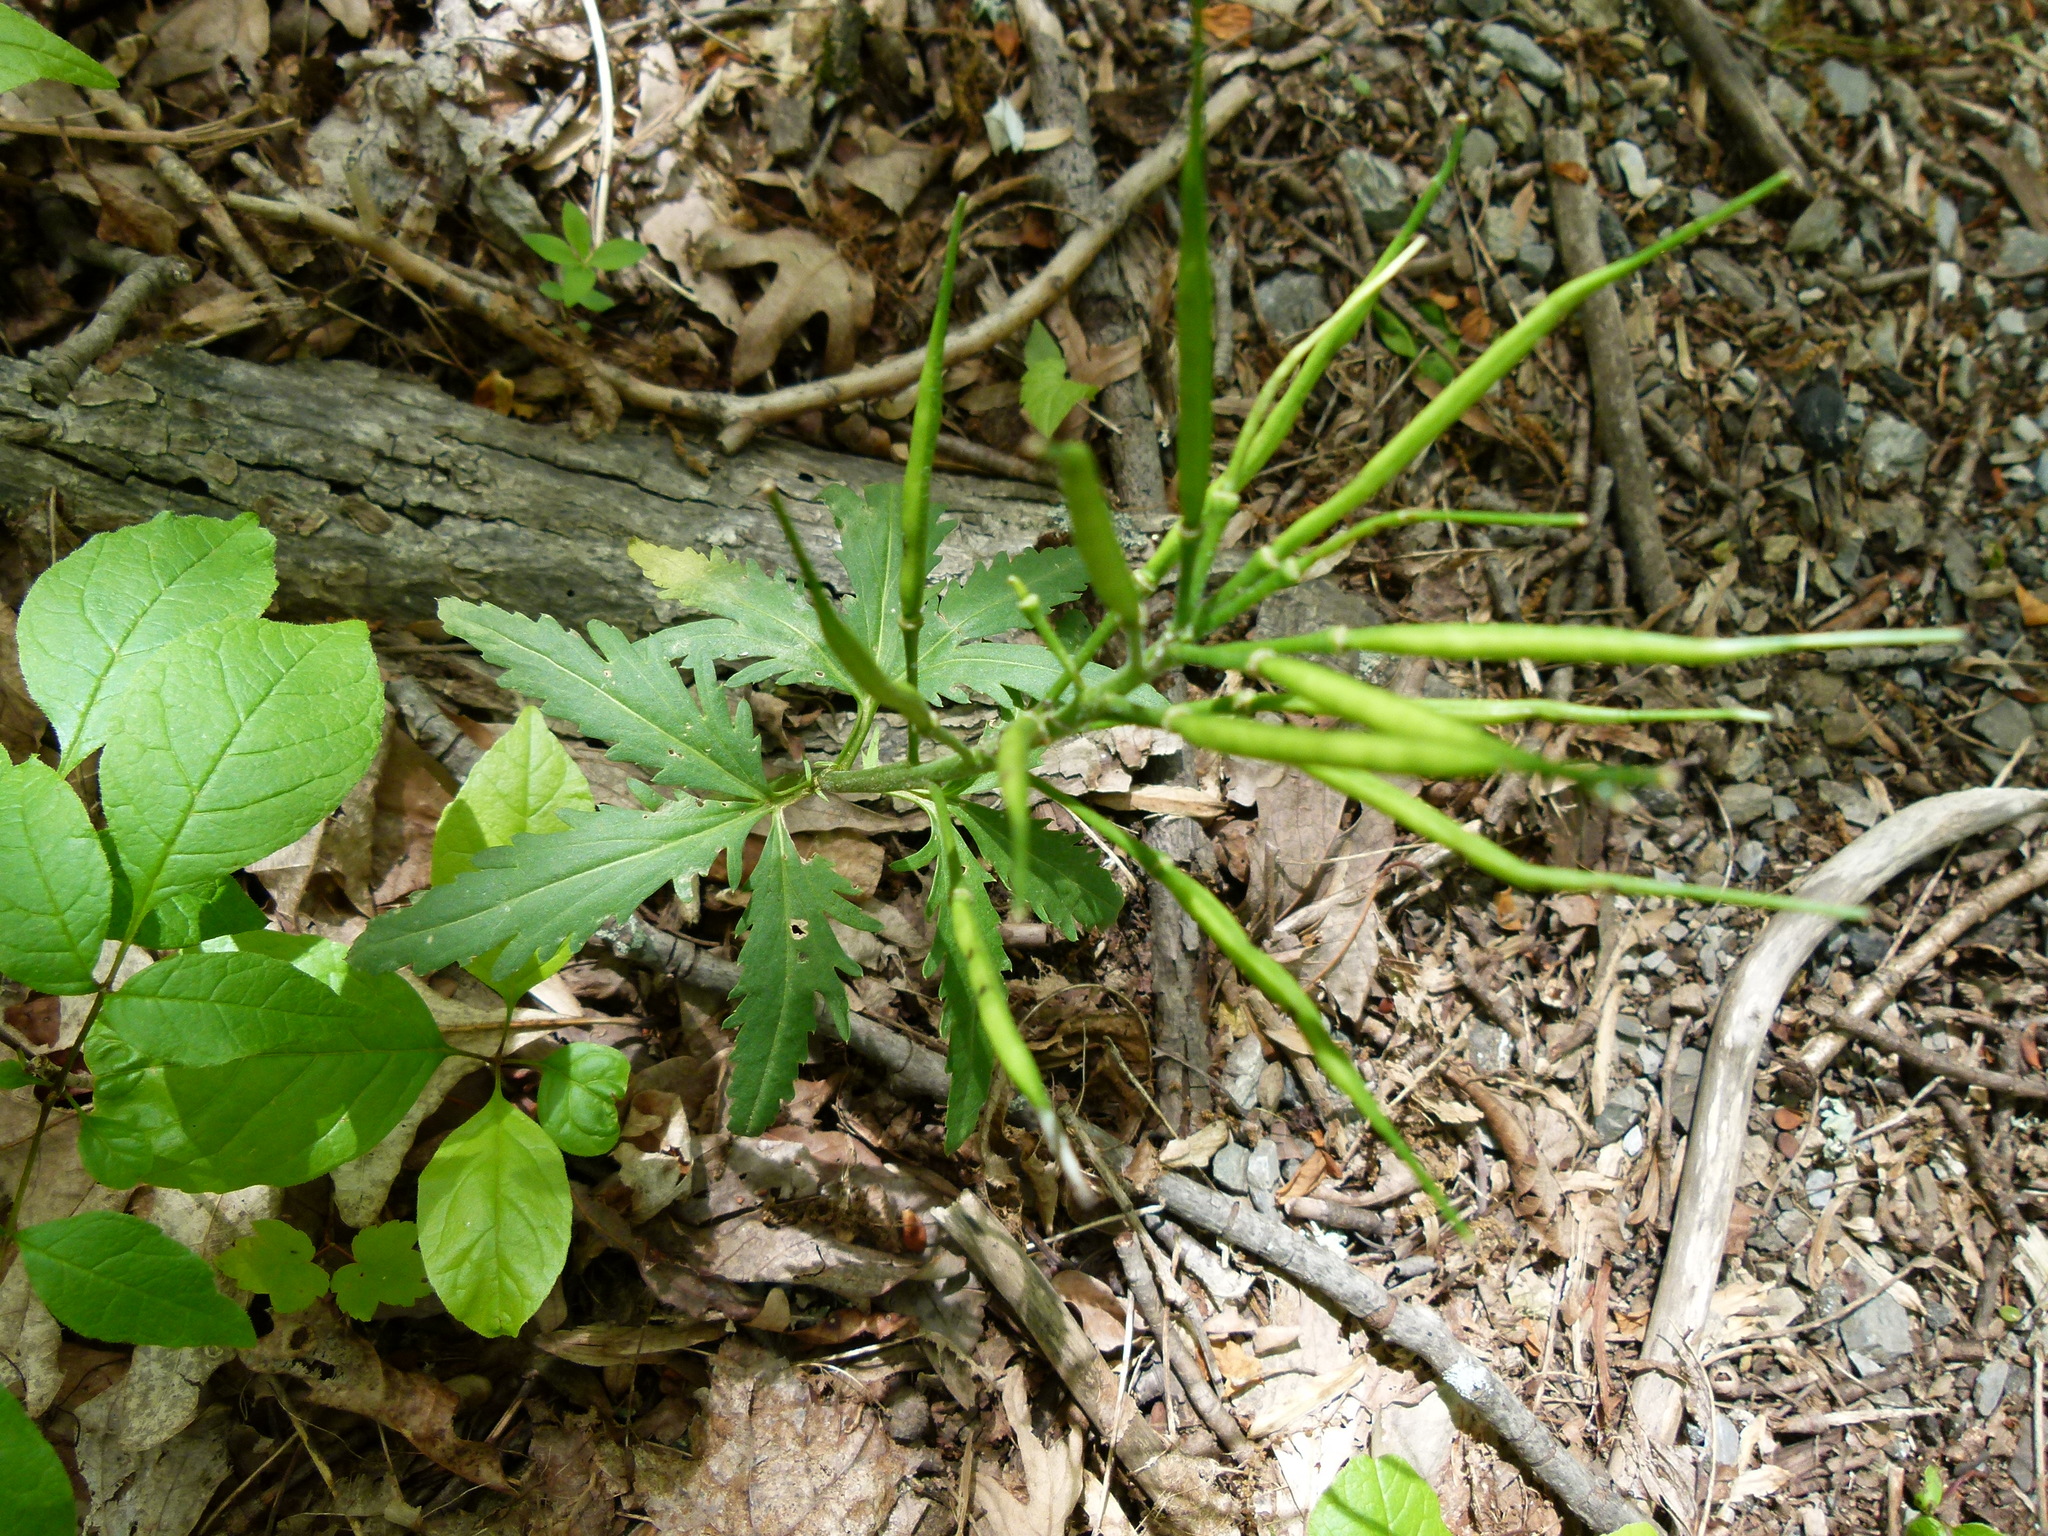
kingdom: Plantae
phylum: Tracheophyta
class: Magnoliopsida
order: Brassicales
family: Brassicaceae
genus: Cardamine
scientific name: Cardamine concatenata
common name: Cut-leaf toothcup
